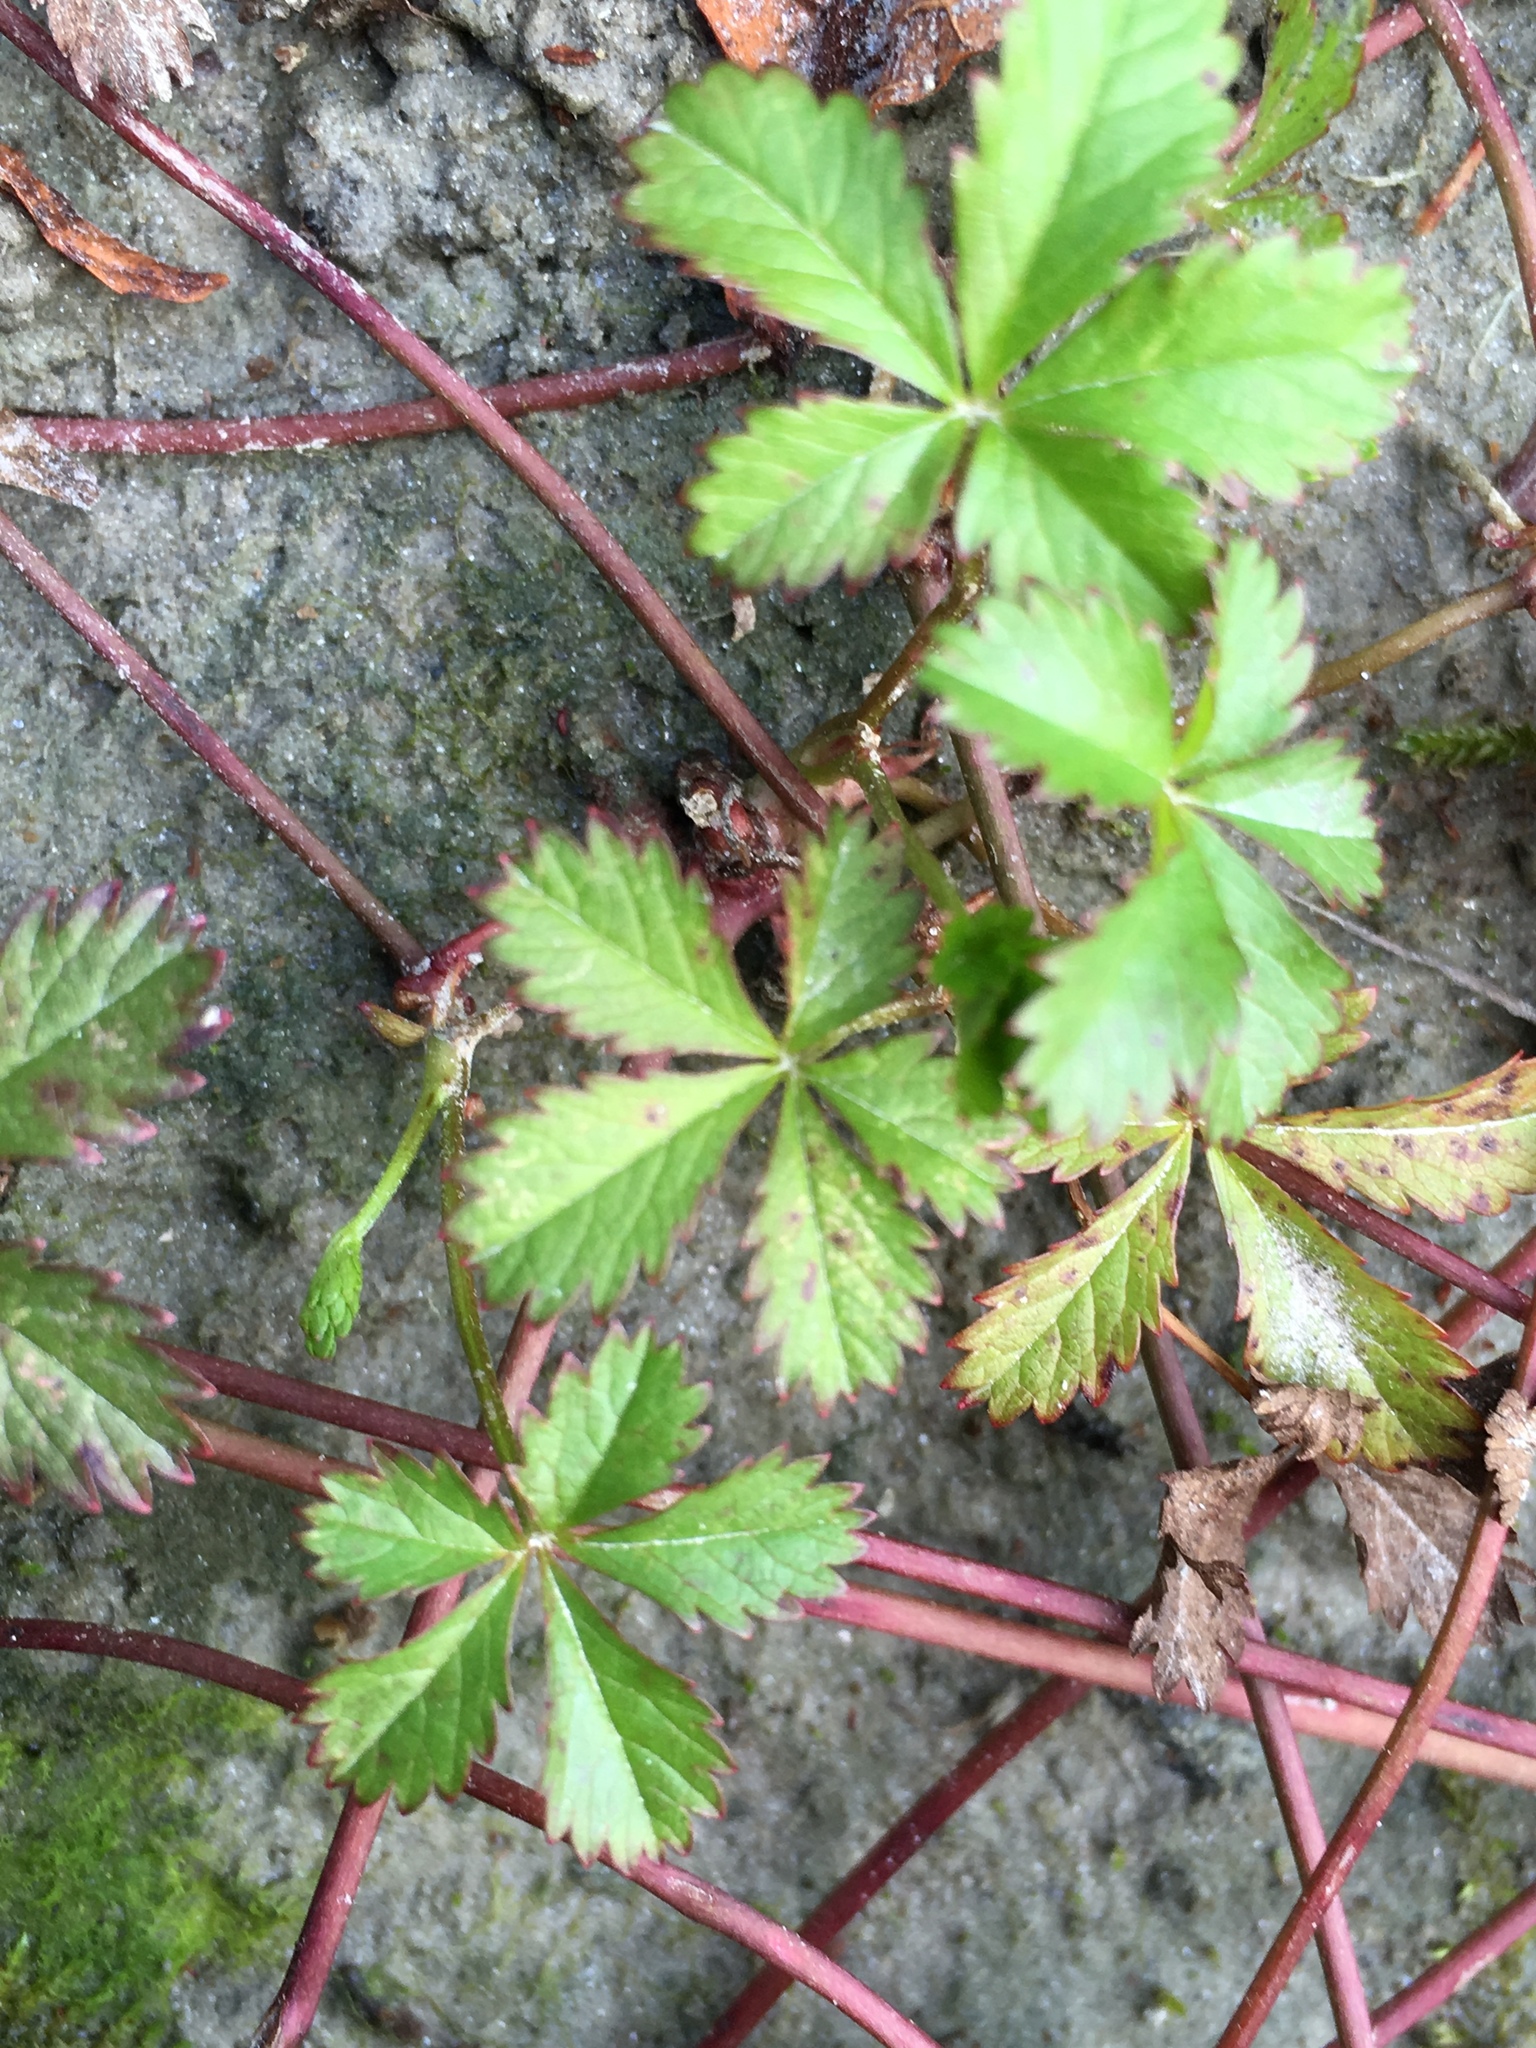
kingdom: Plantae
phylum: Tracheophyta
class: Magnoliopsida
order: Rosales
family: Rosaceae
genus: Potentilla
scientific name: Potentilla reptans
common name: Creeping cinquefoil
